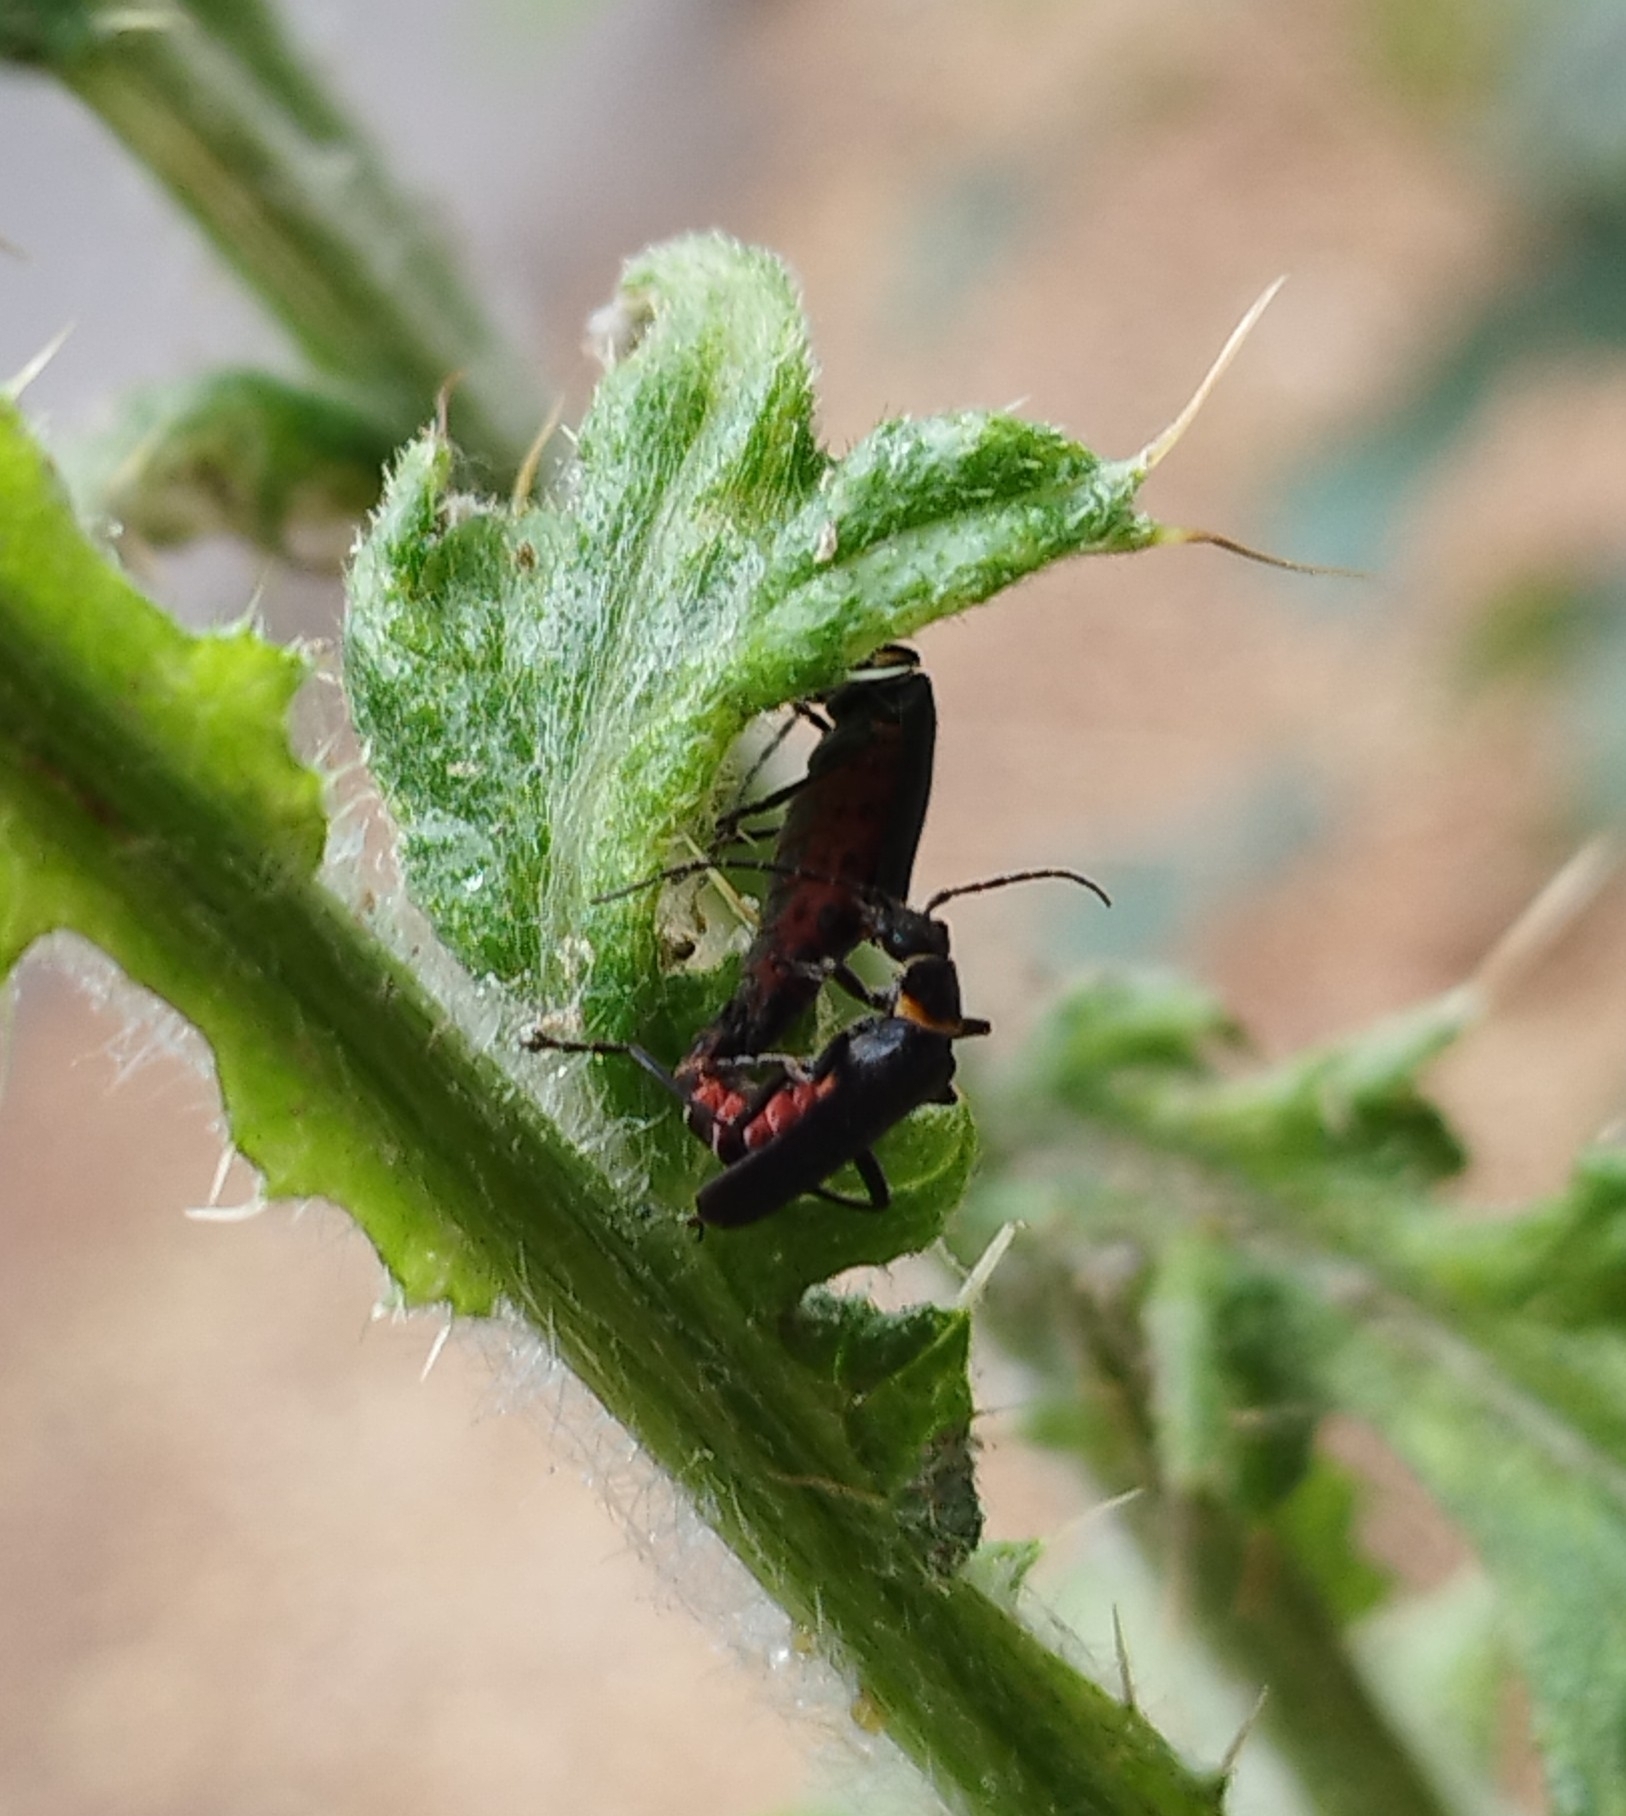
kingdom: Animalia
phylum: Arthropoda
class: Insecta
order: Coleoptera
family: Cantharidae
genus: Chauliognathus
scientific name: Chauliognathus
